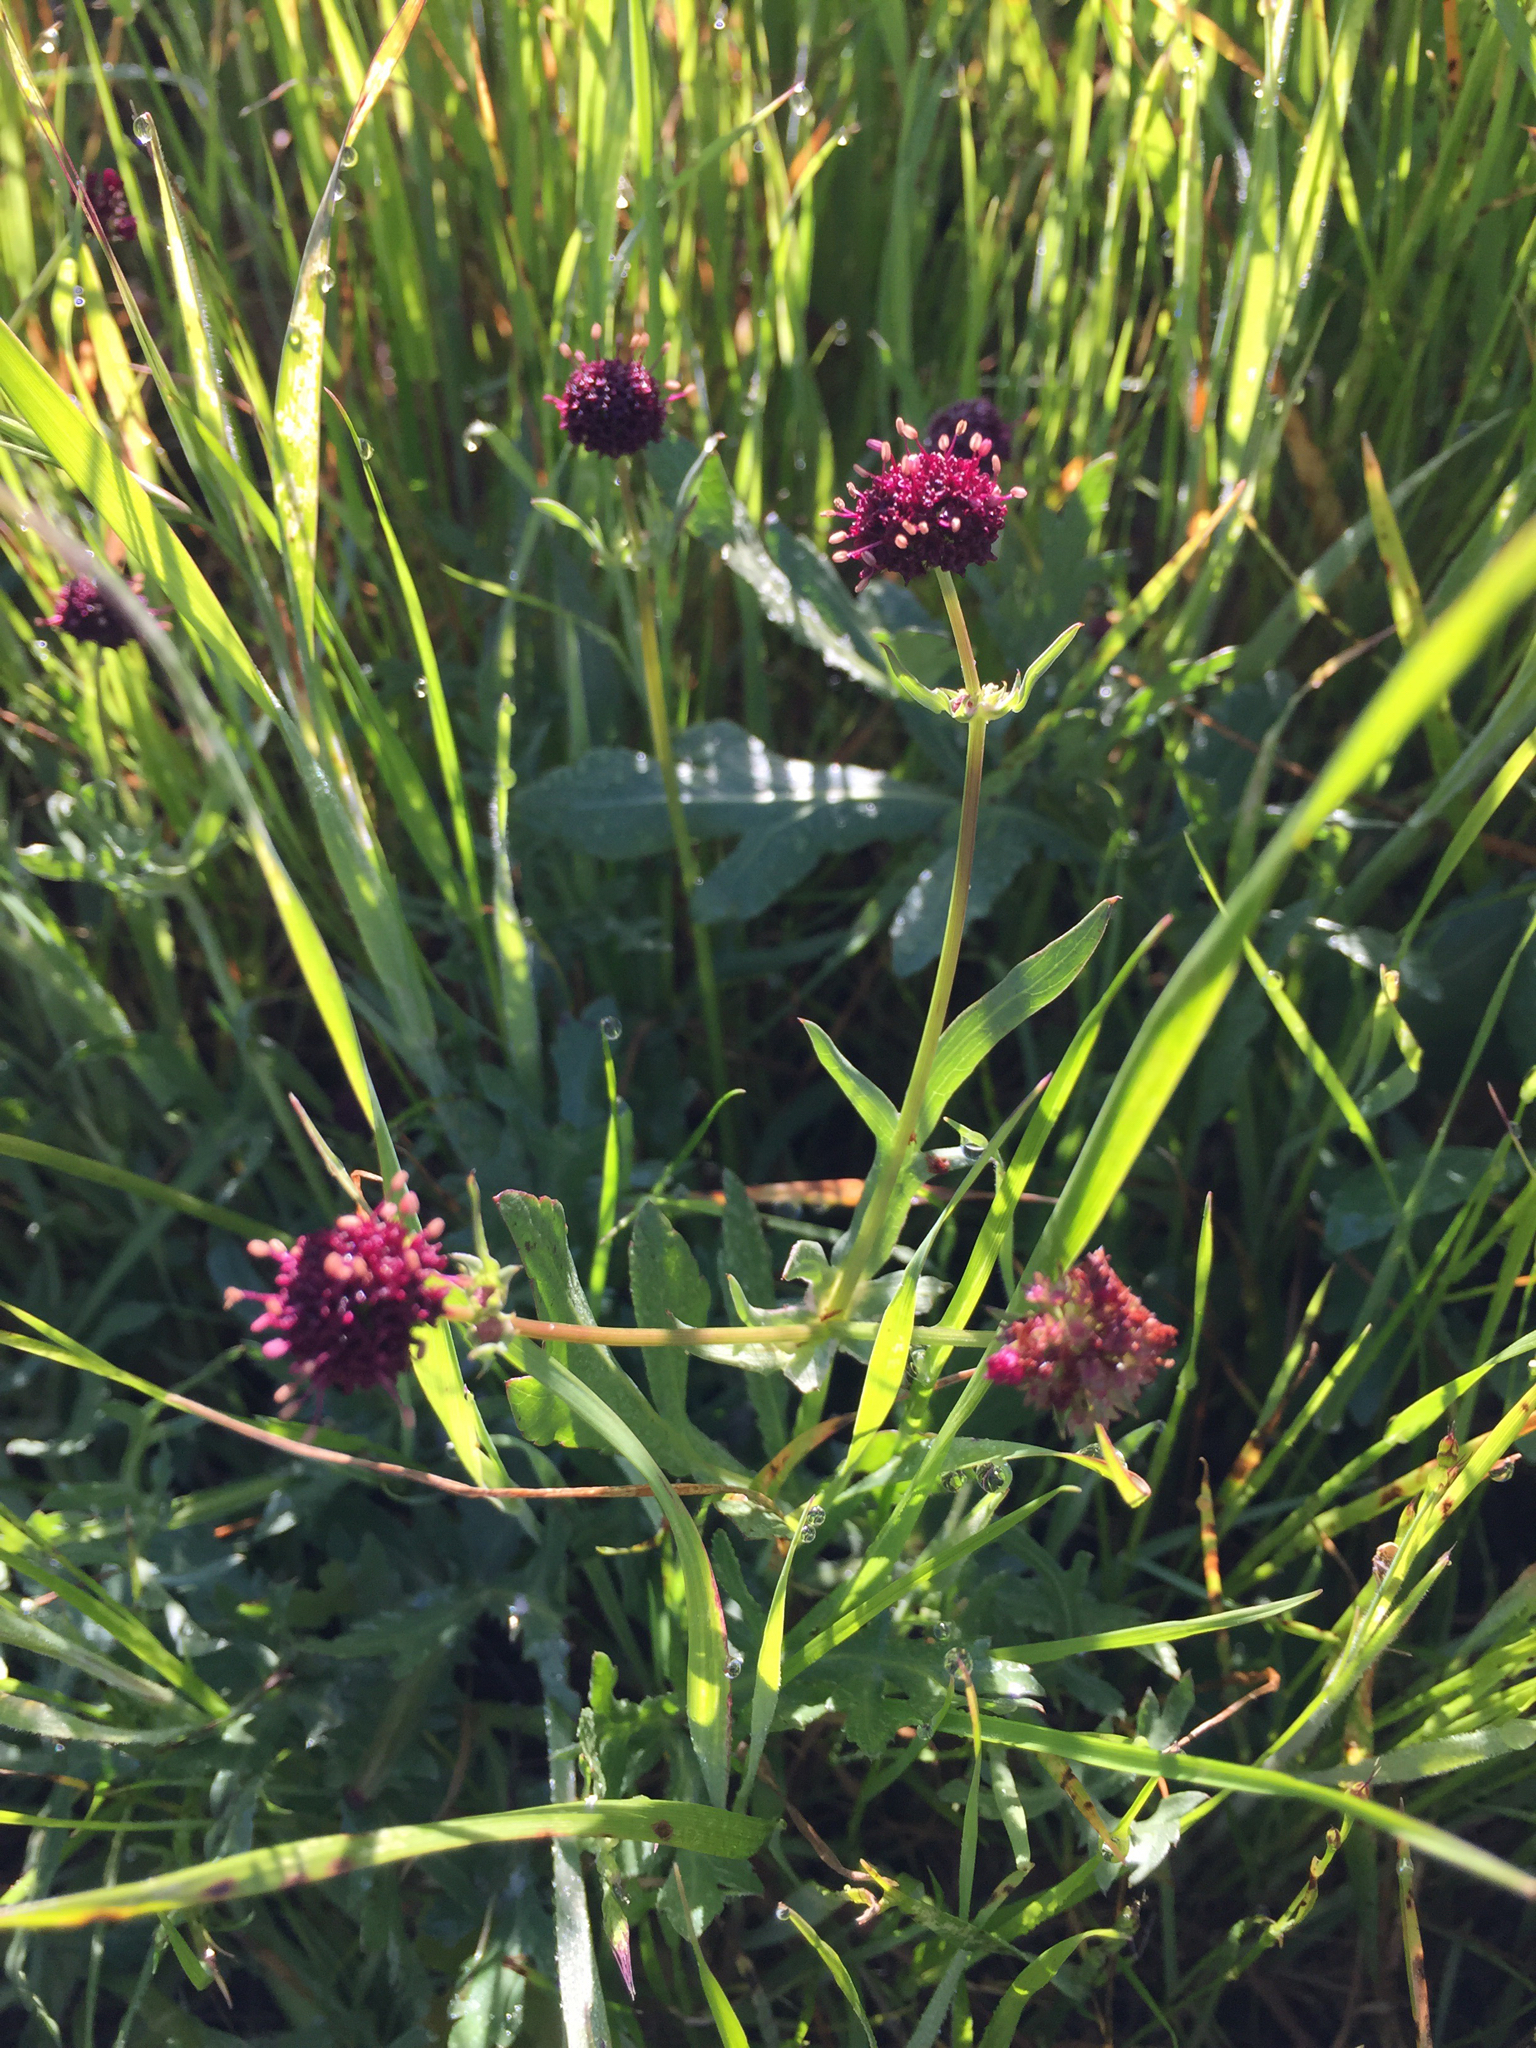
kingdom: Plantae
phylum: Tracheophyta
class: Magnoliopsida
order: Apiales
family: Apiaceae
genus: Sanicula
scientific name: Sanicula bipinnatifida
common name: Shoe-buttons
